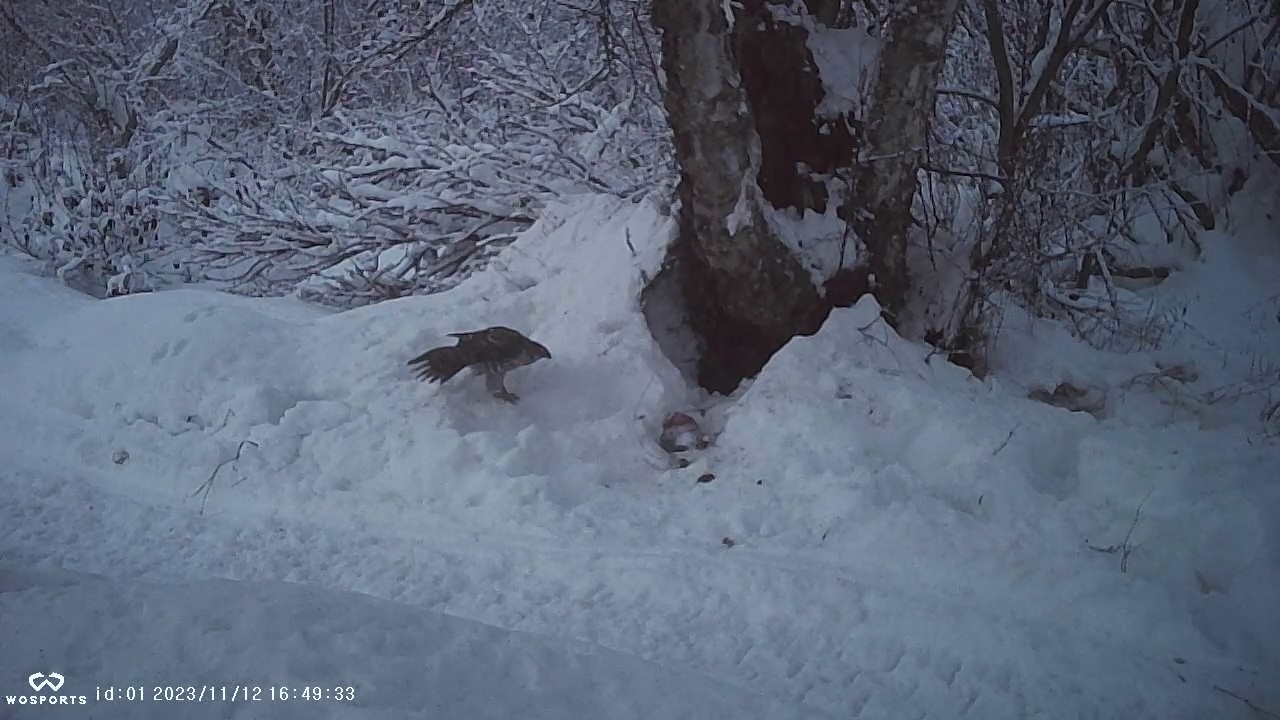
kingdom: Animalia
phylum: Chordata
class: Aves
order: Accipitriformes
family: Accipitridae
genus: Accipiter
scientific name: Accipiter gentilis
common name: Northern goshawk
